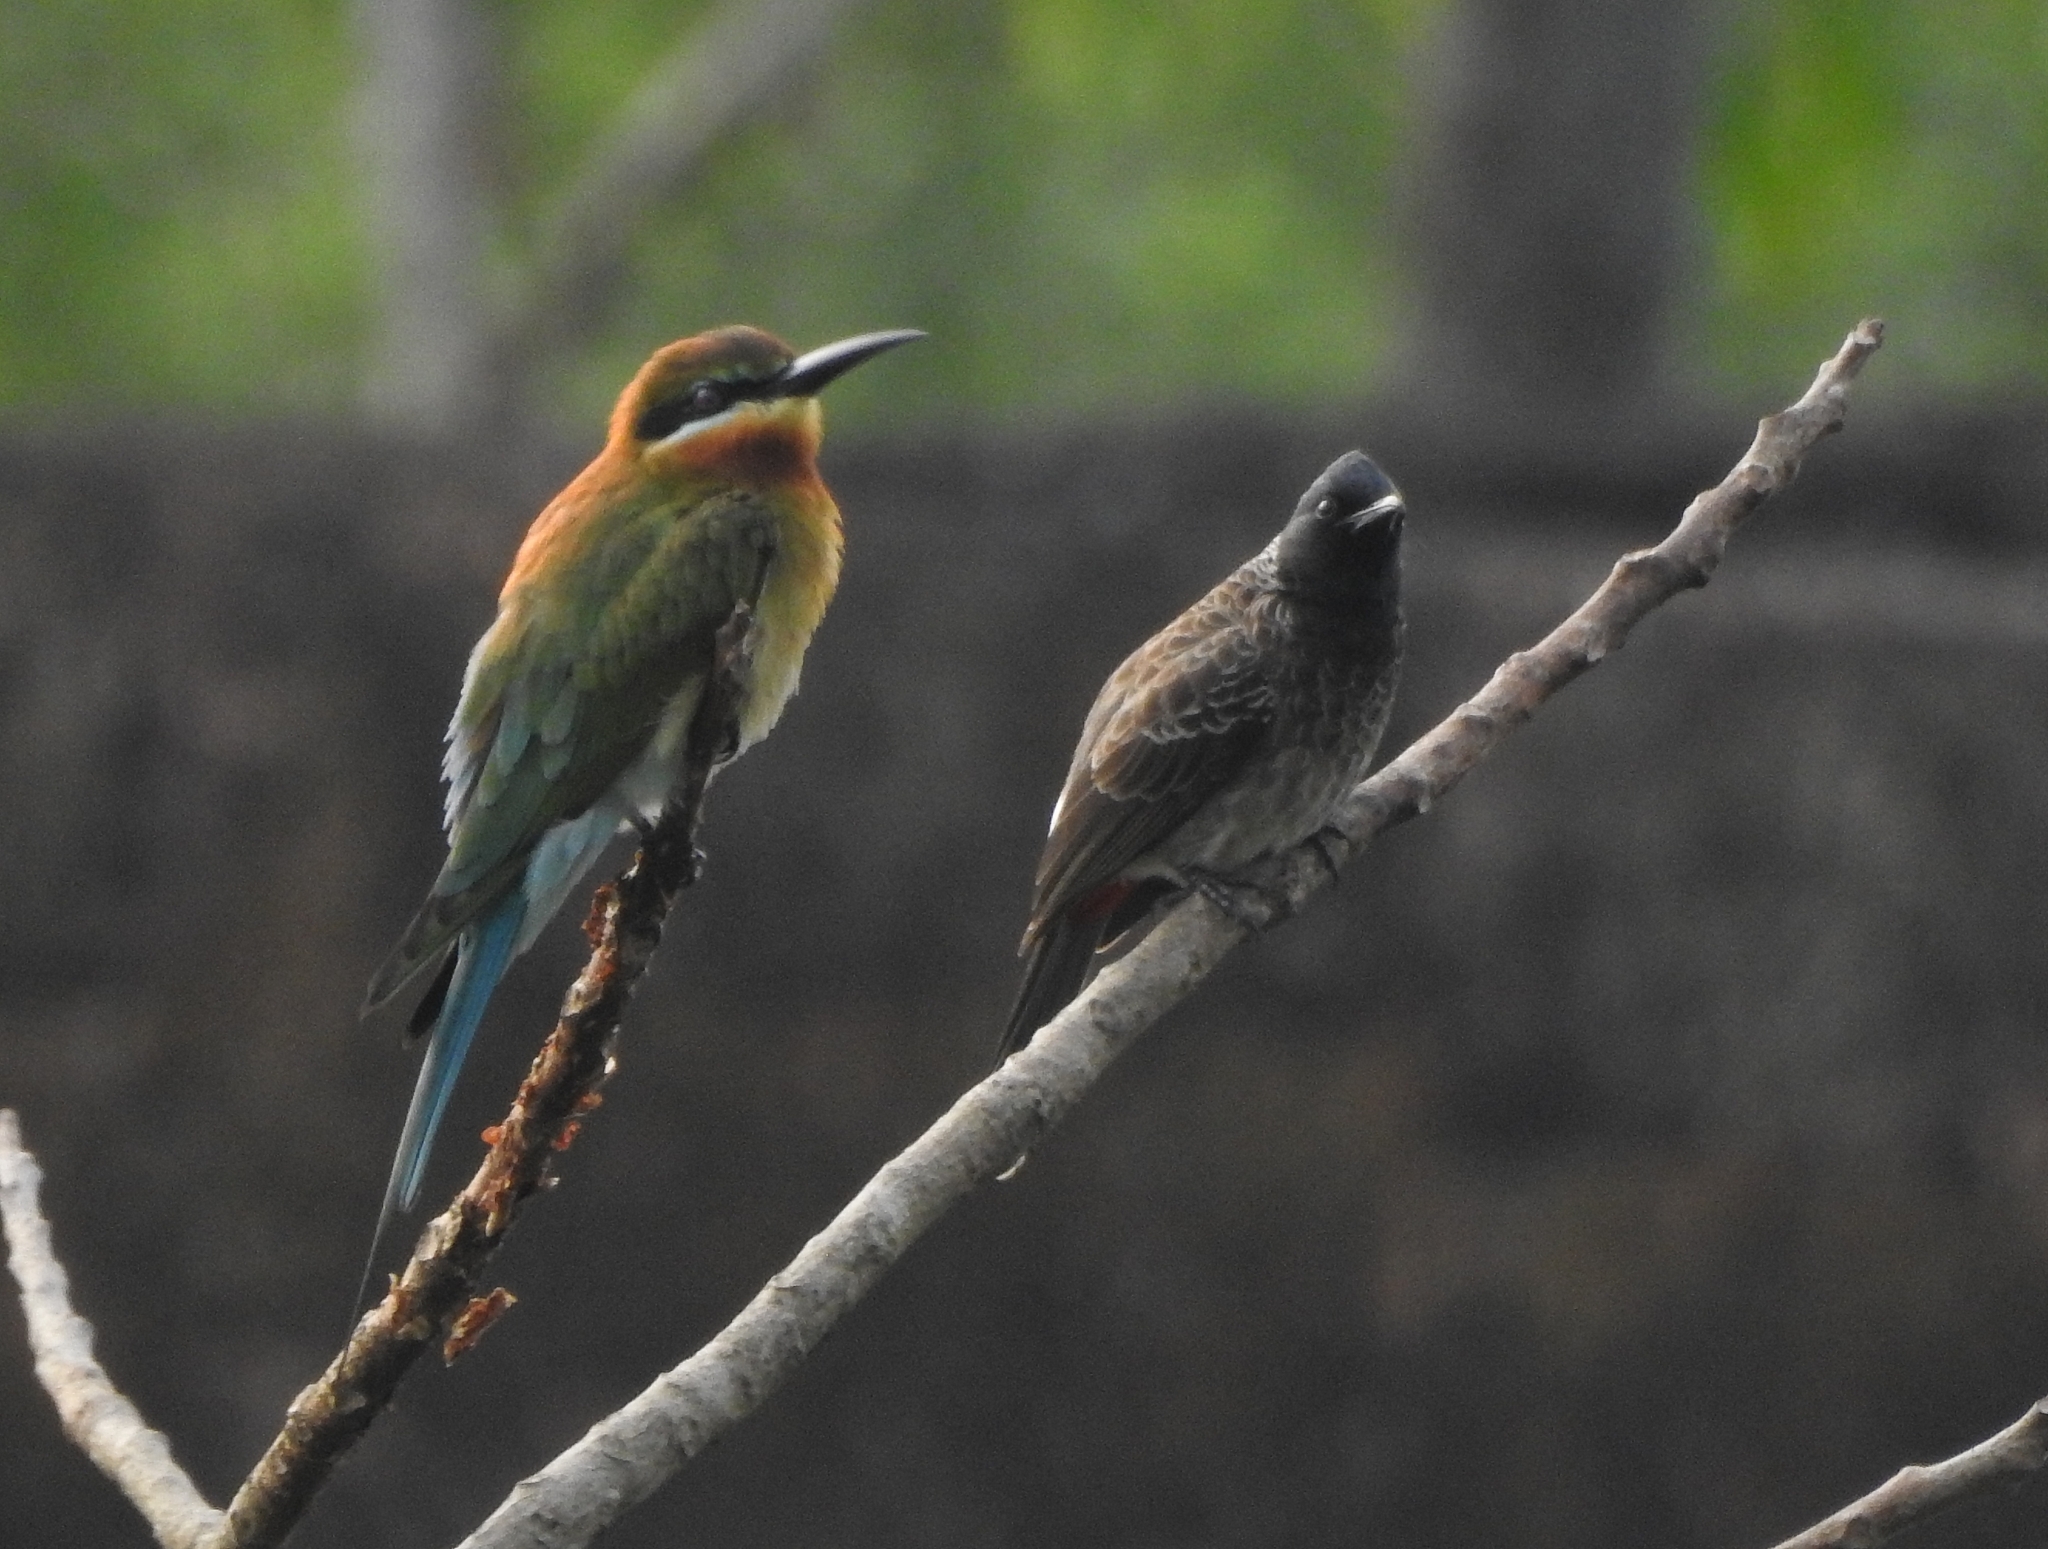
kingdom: Animalia
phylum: Chordata
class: Aves
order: Coraciiformes
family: Meropidae
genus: Merops
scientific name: Merops philippinus
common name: Blue-tailed bee-eater
